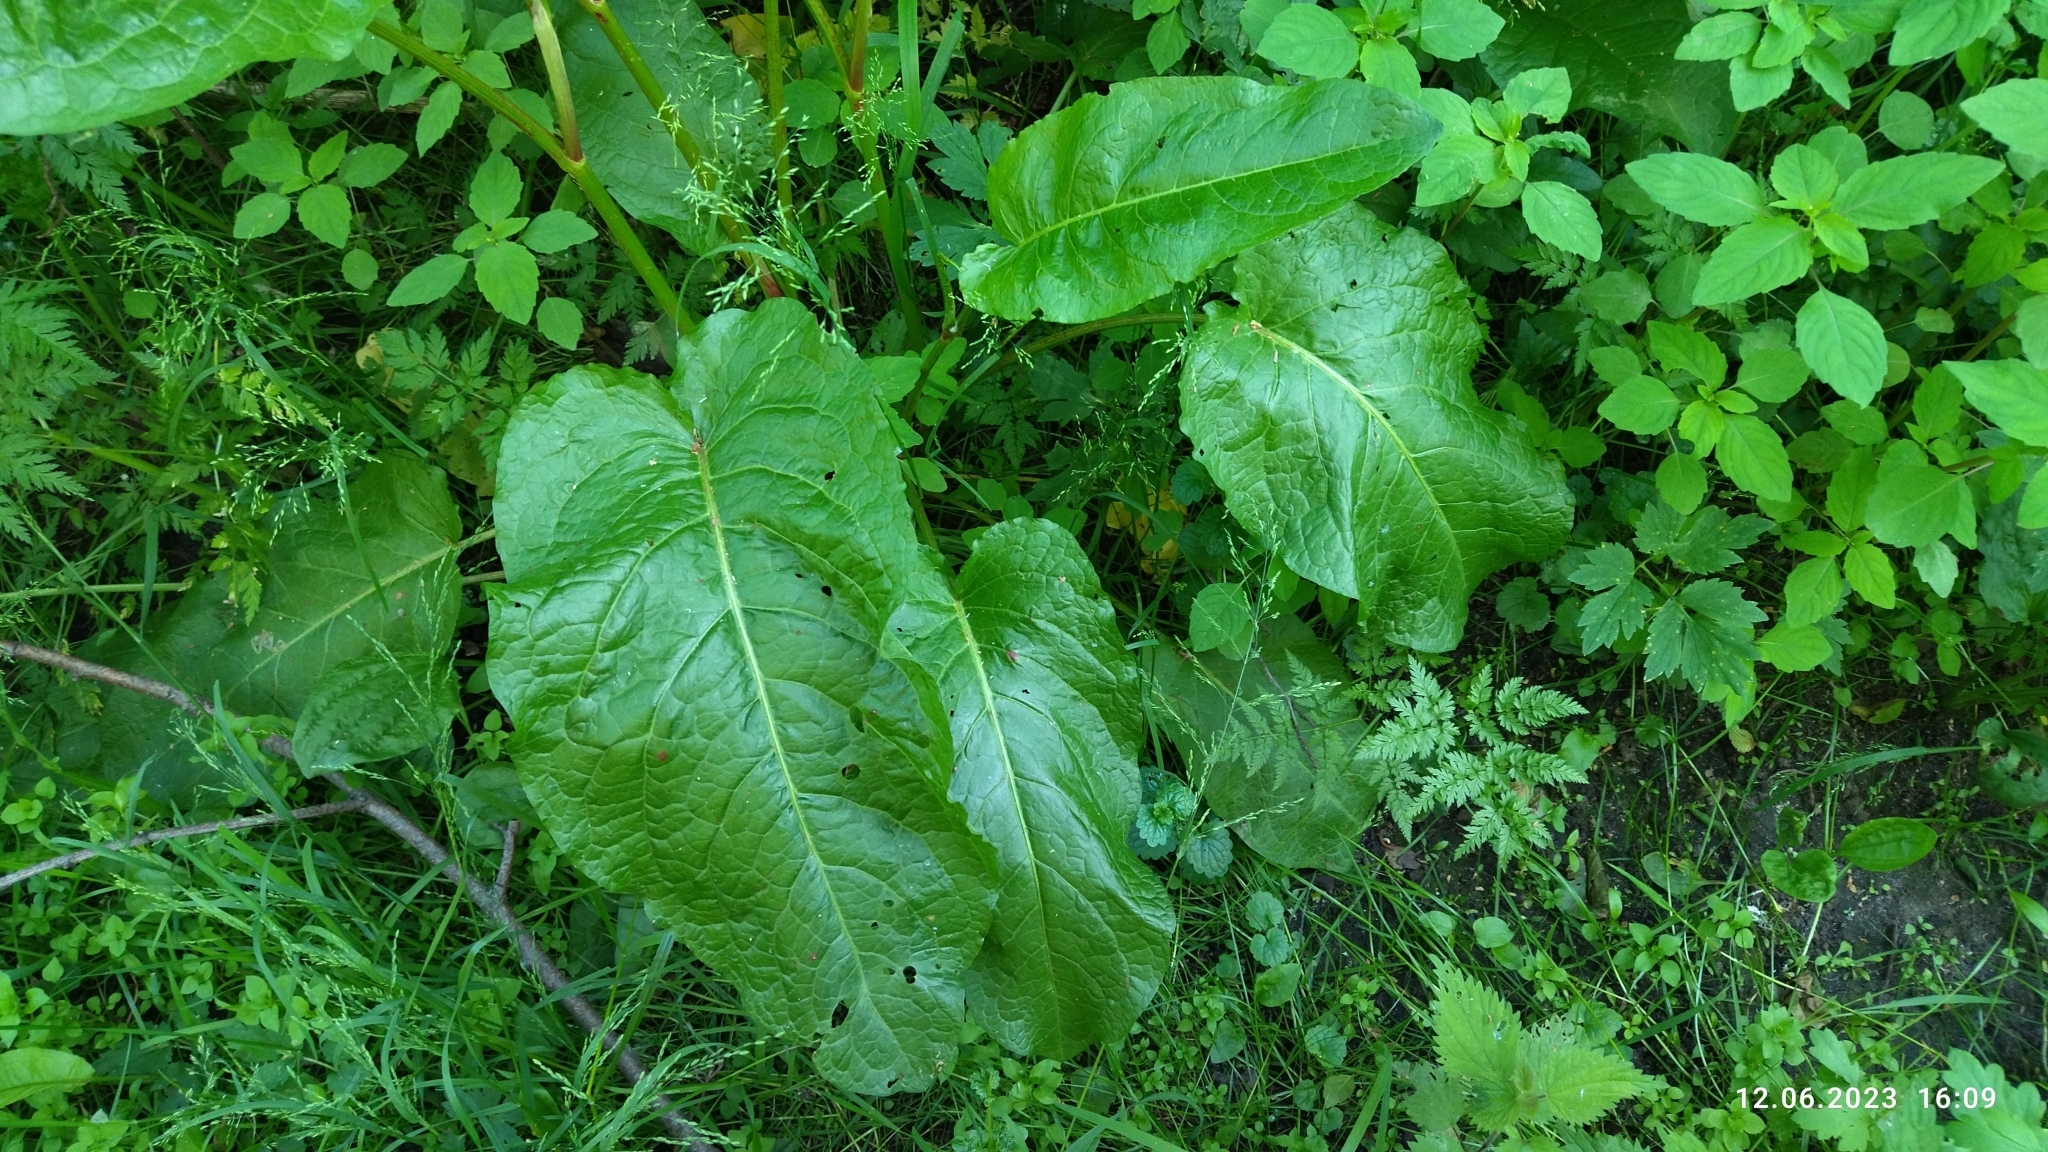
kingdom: Plantae
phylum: Tracheophyta
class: Magnoliopsida
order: Caryophyllales
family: Polygonaceae
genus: Rumex
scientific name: Rumex obtusifolius
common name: Bitter dock
